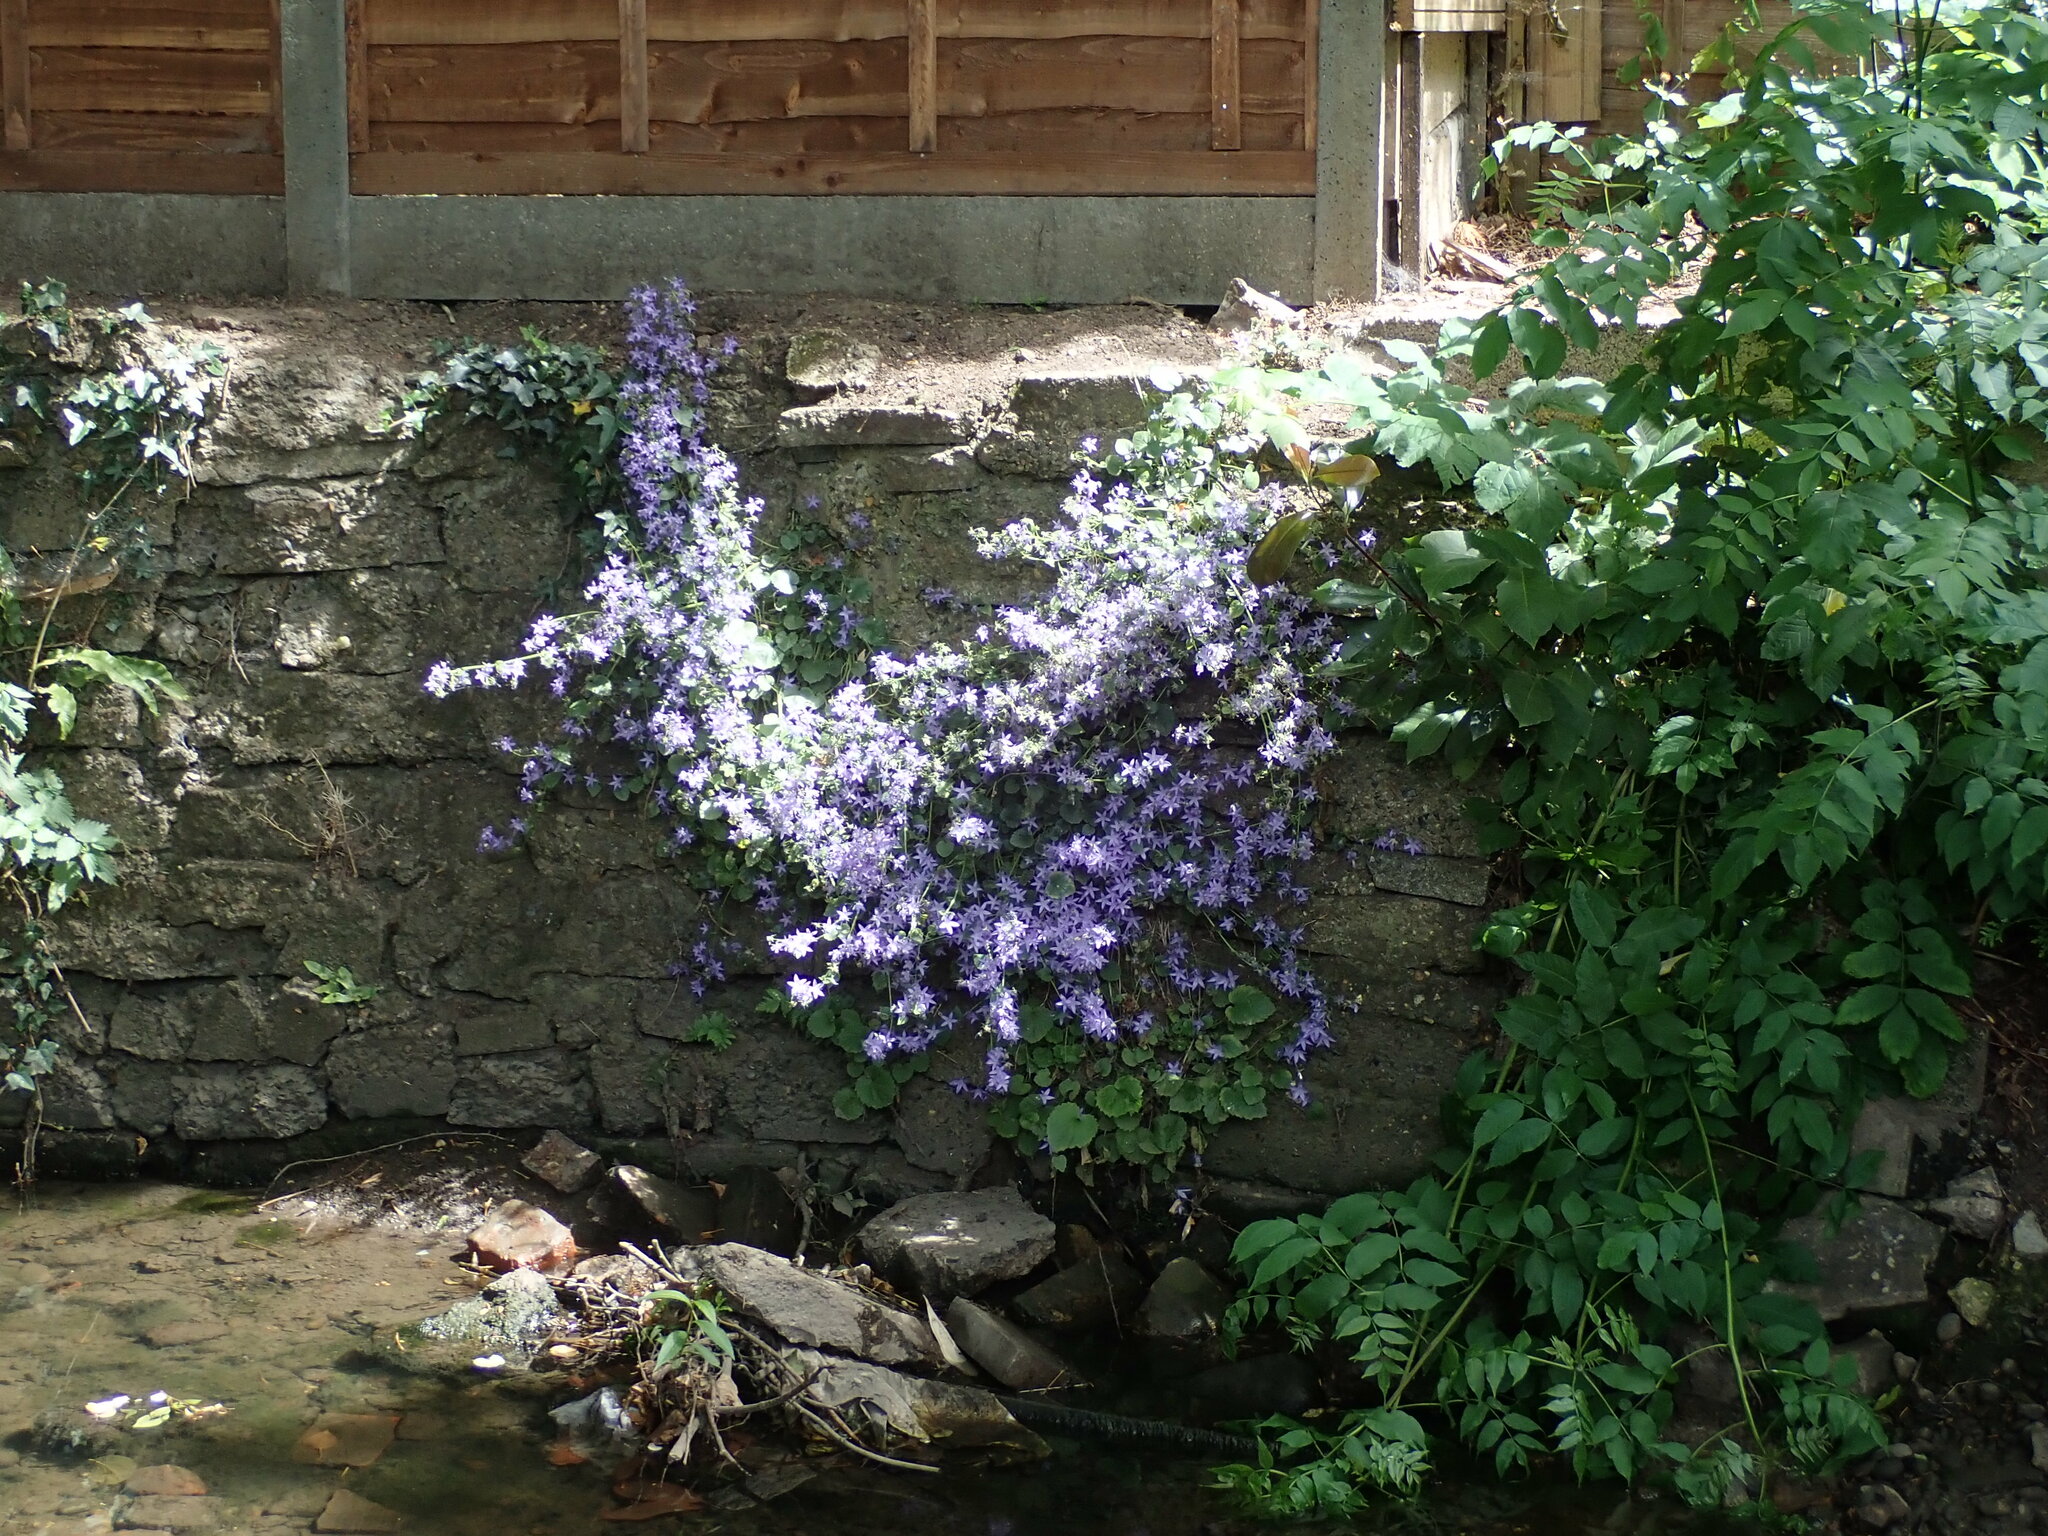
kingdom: Plantae
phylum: Tracheophyta
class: Magnoliopsida
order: Asterales
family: Campanulaceae
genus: Campanula
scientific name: Campanula poscharskyana
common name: Trailing bellflower
